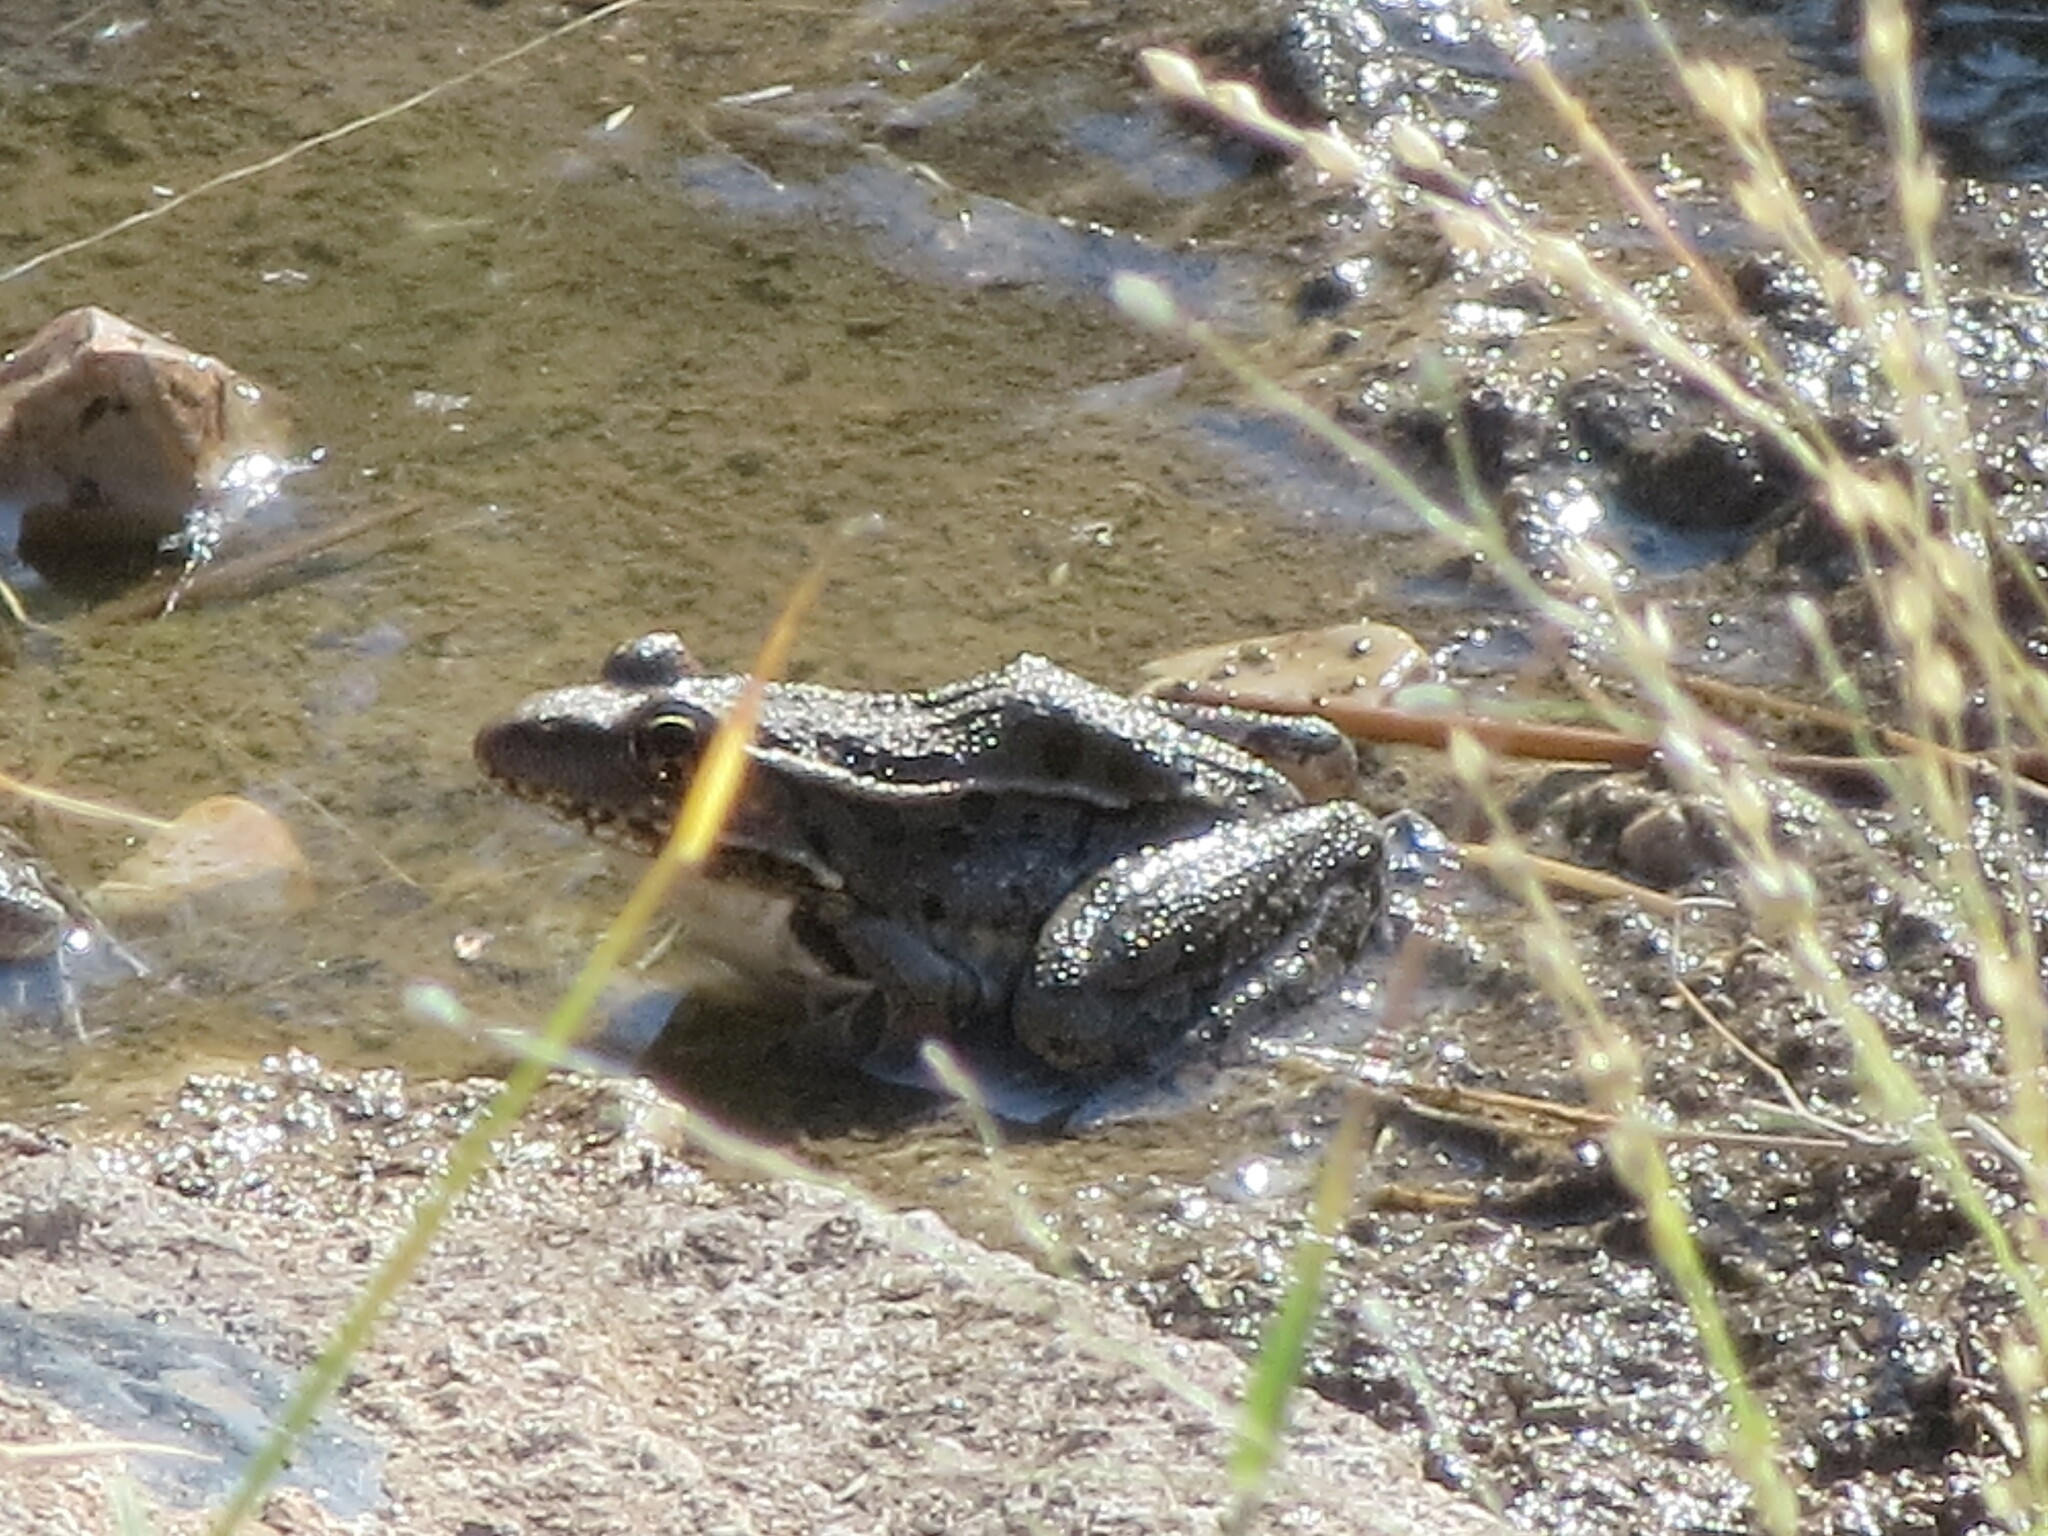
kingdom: Animalia
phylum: Chordata
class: Amphibia
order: Anura
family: Ranidae
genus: Lithobates
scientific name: Lithobates berlandieri
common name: Rio grande leopard frog
